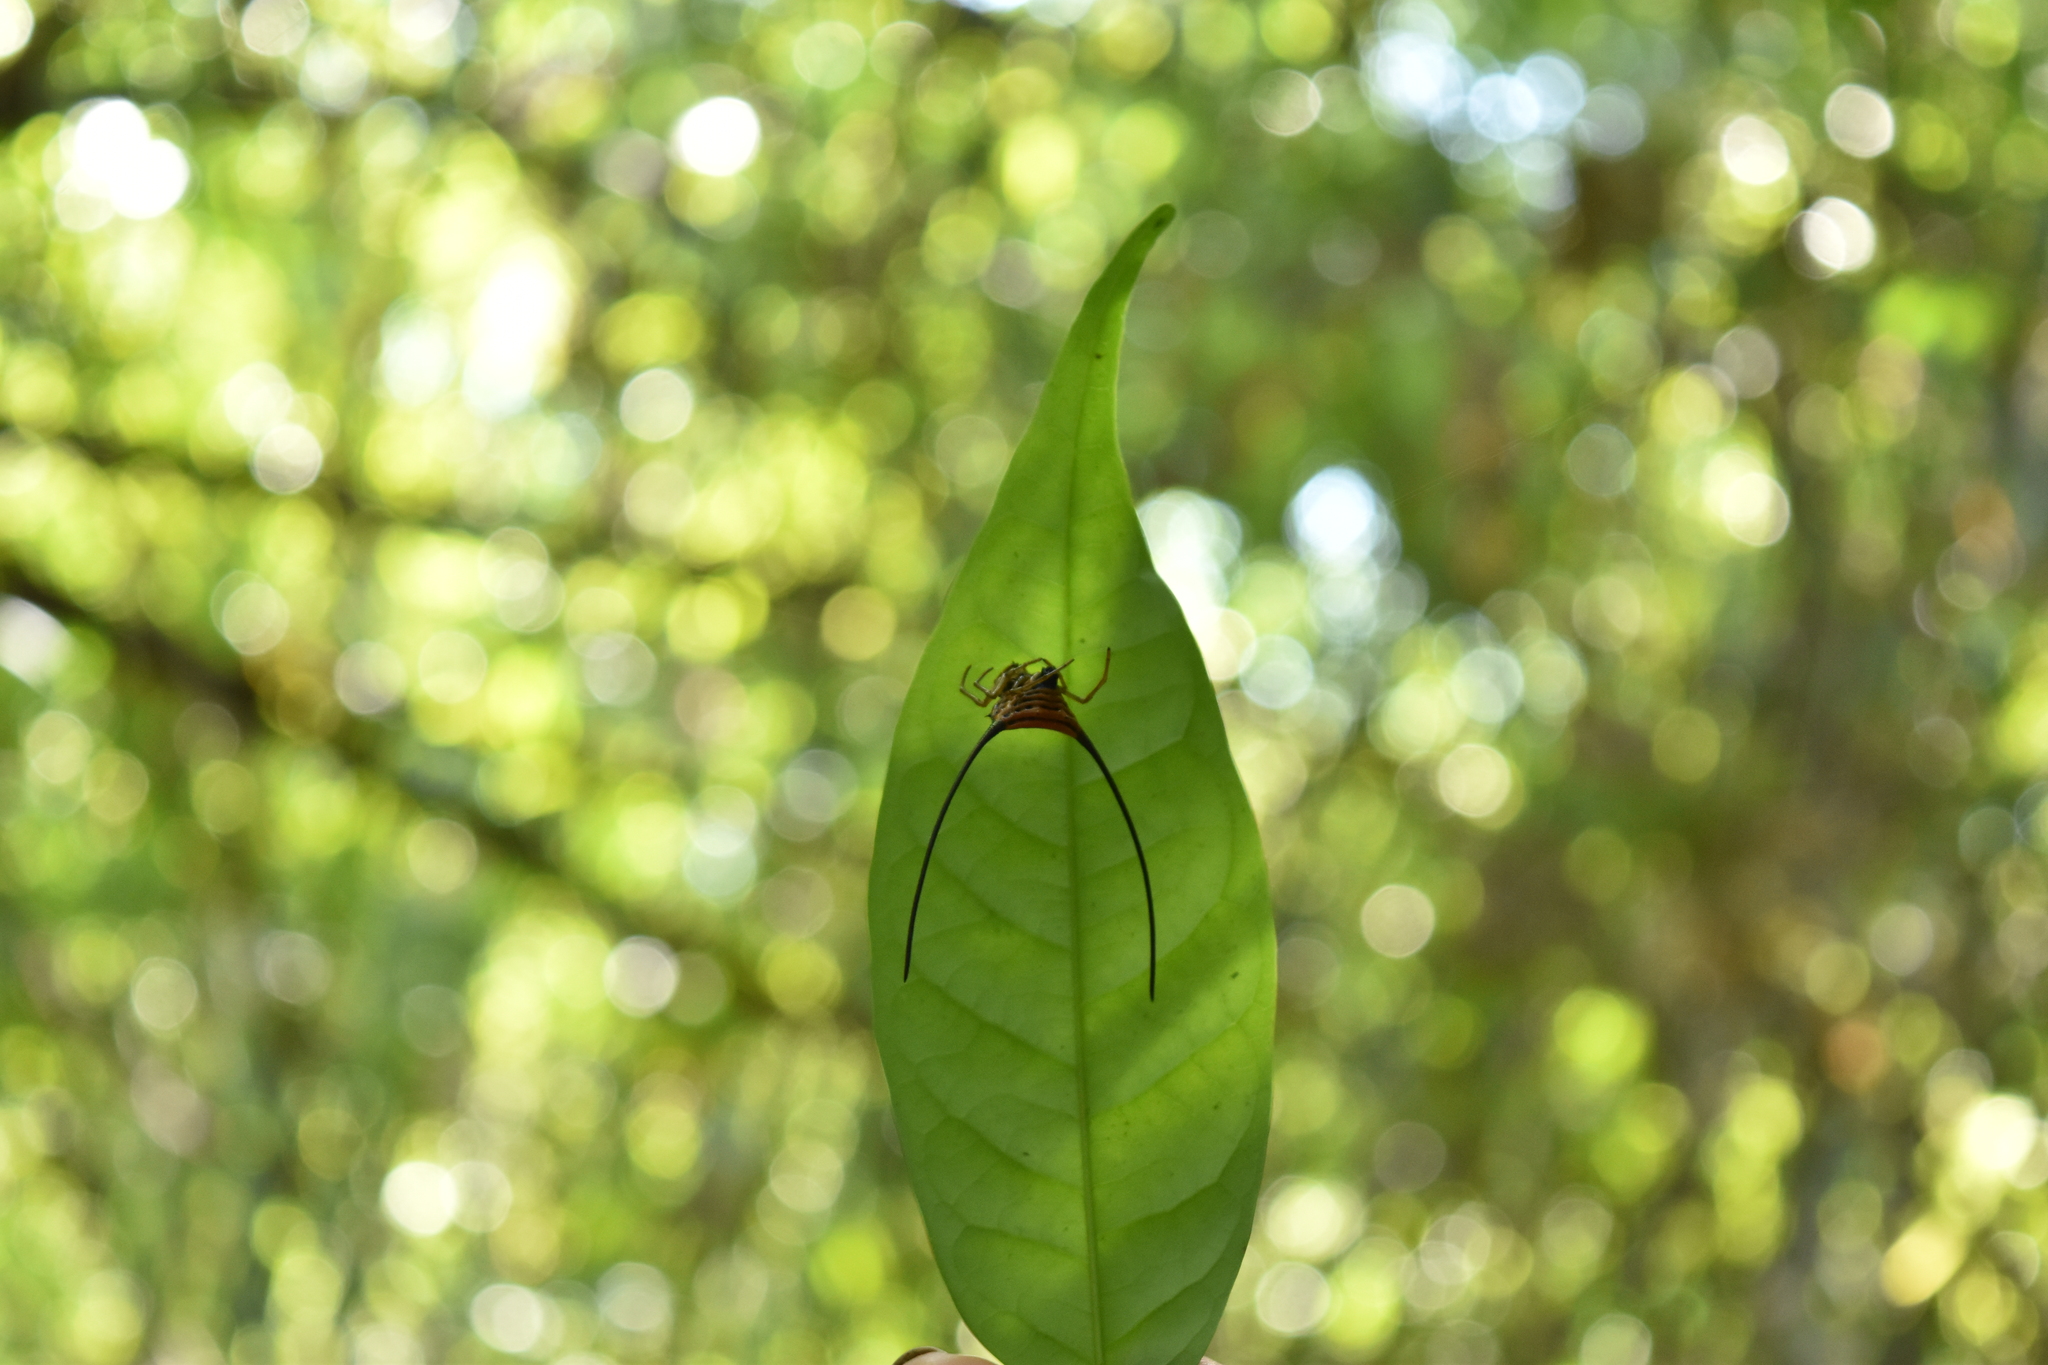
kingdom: Animalia
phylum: Arthropoda
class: Arachnida
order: Araneae
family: Araneidae
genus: Macracantha
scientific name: Macracantha arcuata
